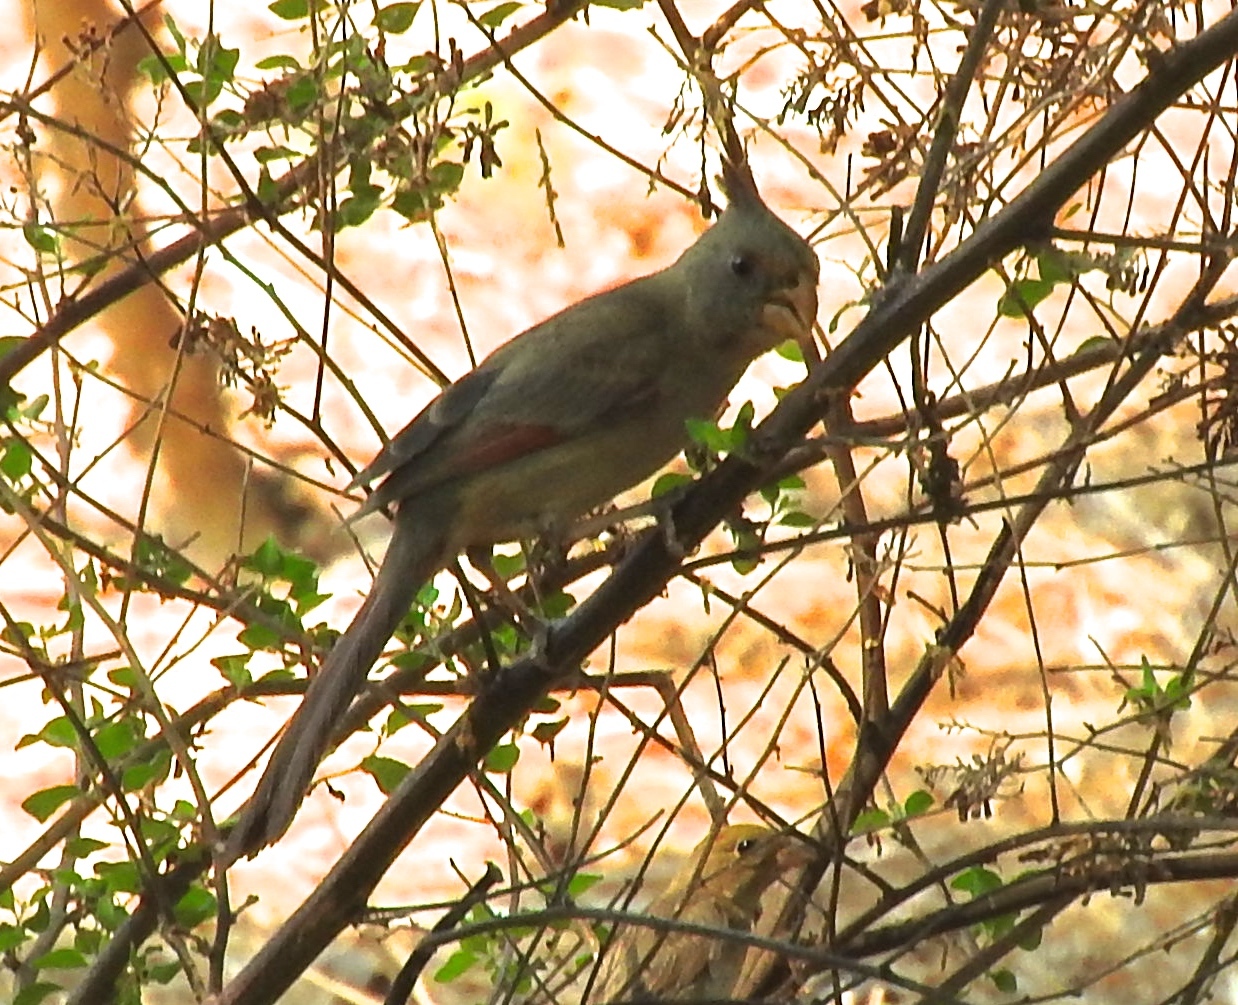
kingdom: Animalia
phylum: Chordata
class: Aves
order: Passeriformes
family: Cardinalidae
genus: Cardinalis
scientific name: Cardinalis sinuatus
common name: Pyrrhuloxia
